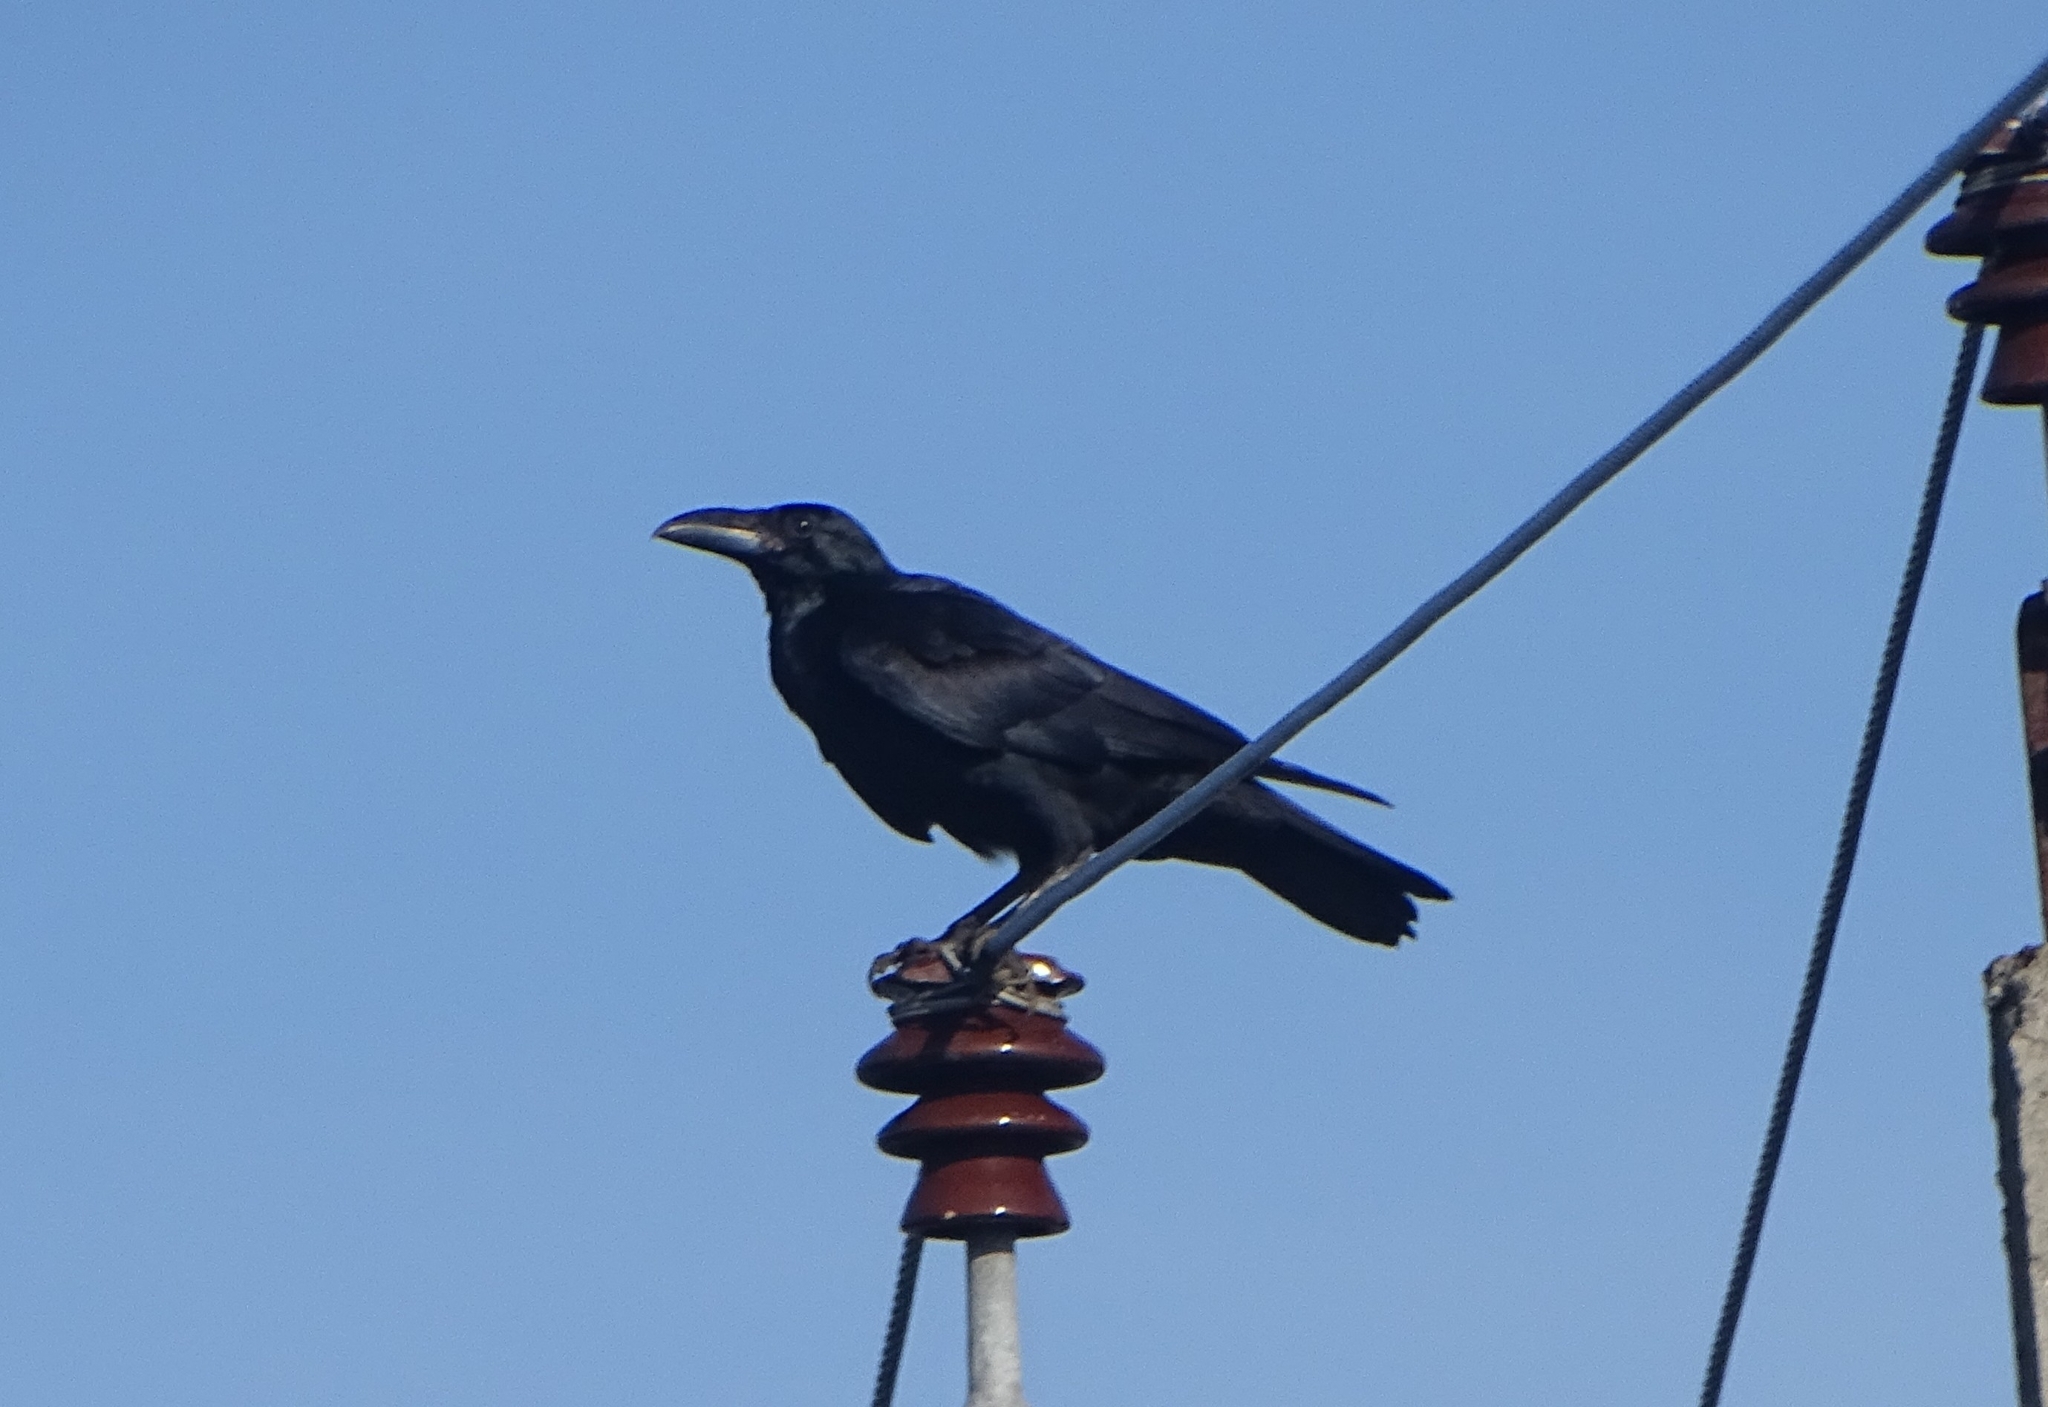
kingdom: Animalia
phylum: Chordata
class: Aves
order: Passeriformes
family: Corvidae
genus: Corvus
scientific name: Corvus macrorhynchos
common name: Large-billed crow
